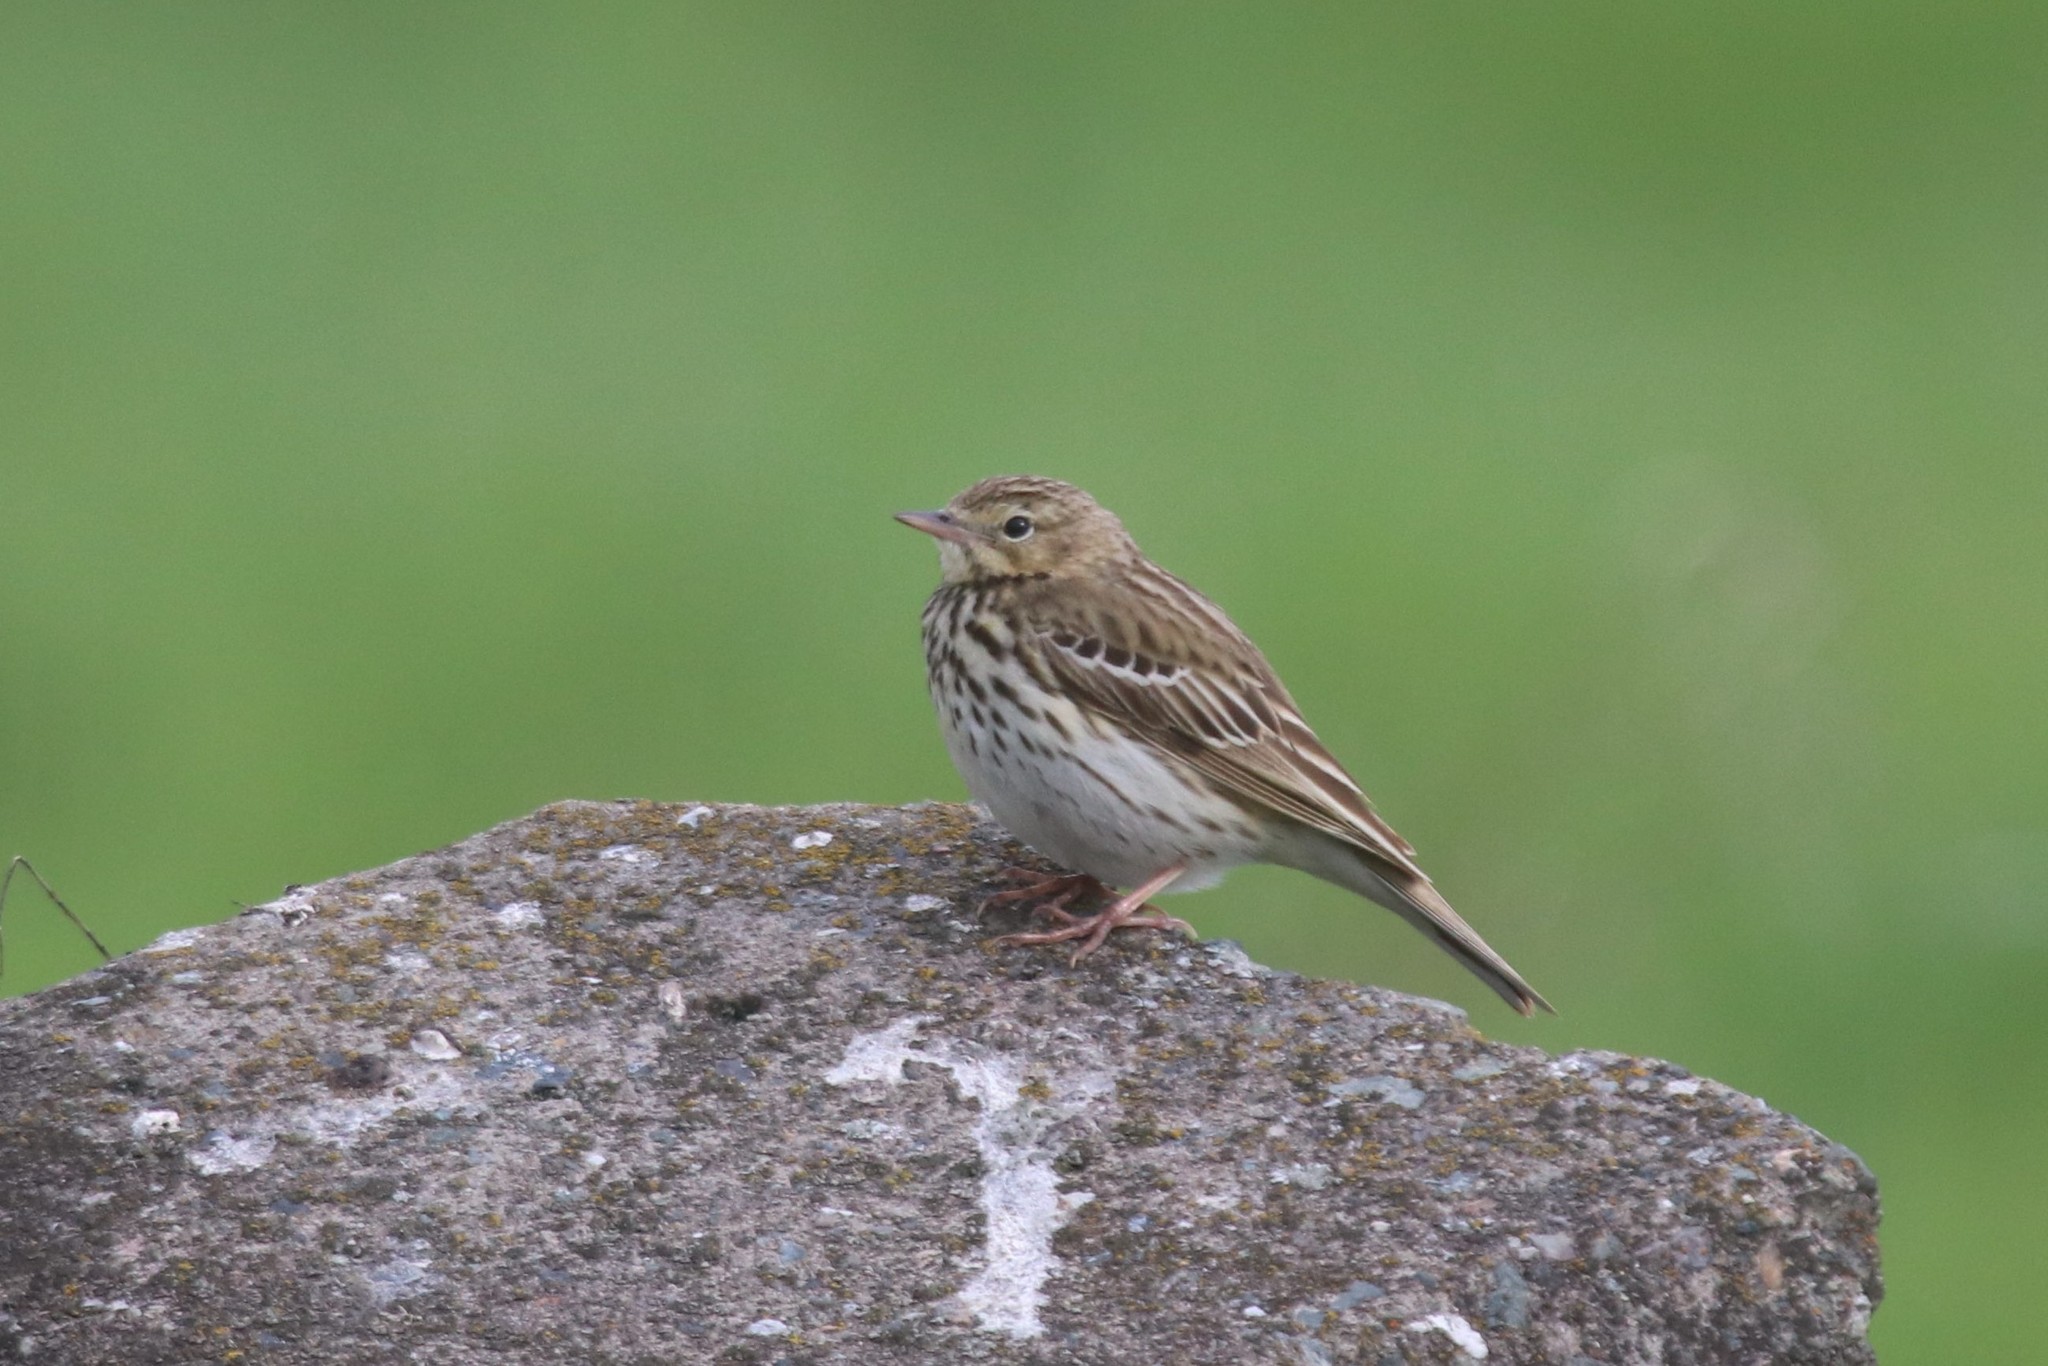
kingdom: Animalia
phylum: Chordata
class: Aves
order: Passeriformes
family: Motacillidae
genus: Anthus
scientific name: Anthus trivialis
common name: Tree pipit
